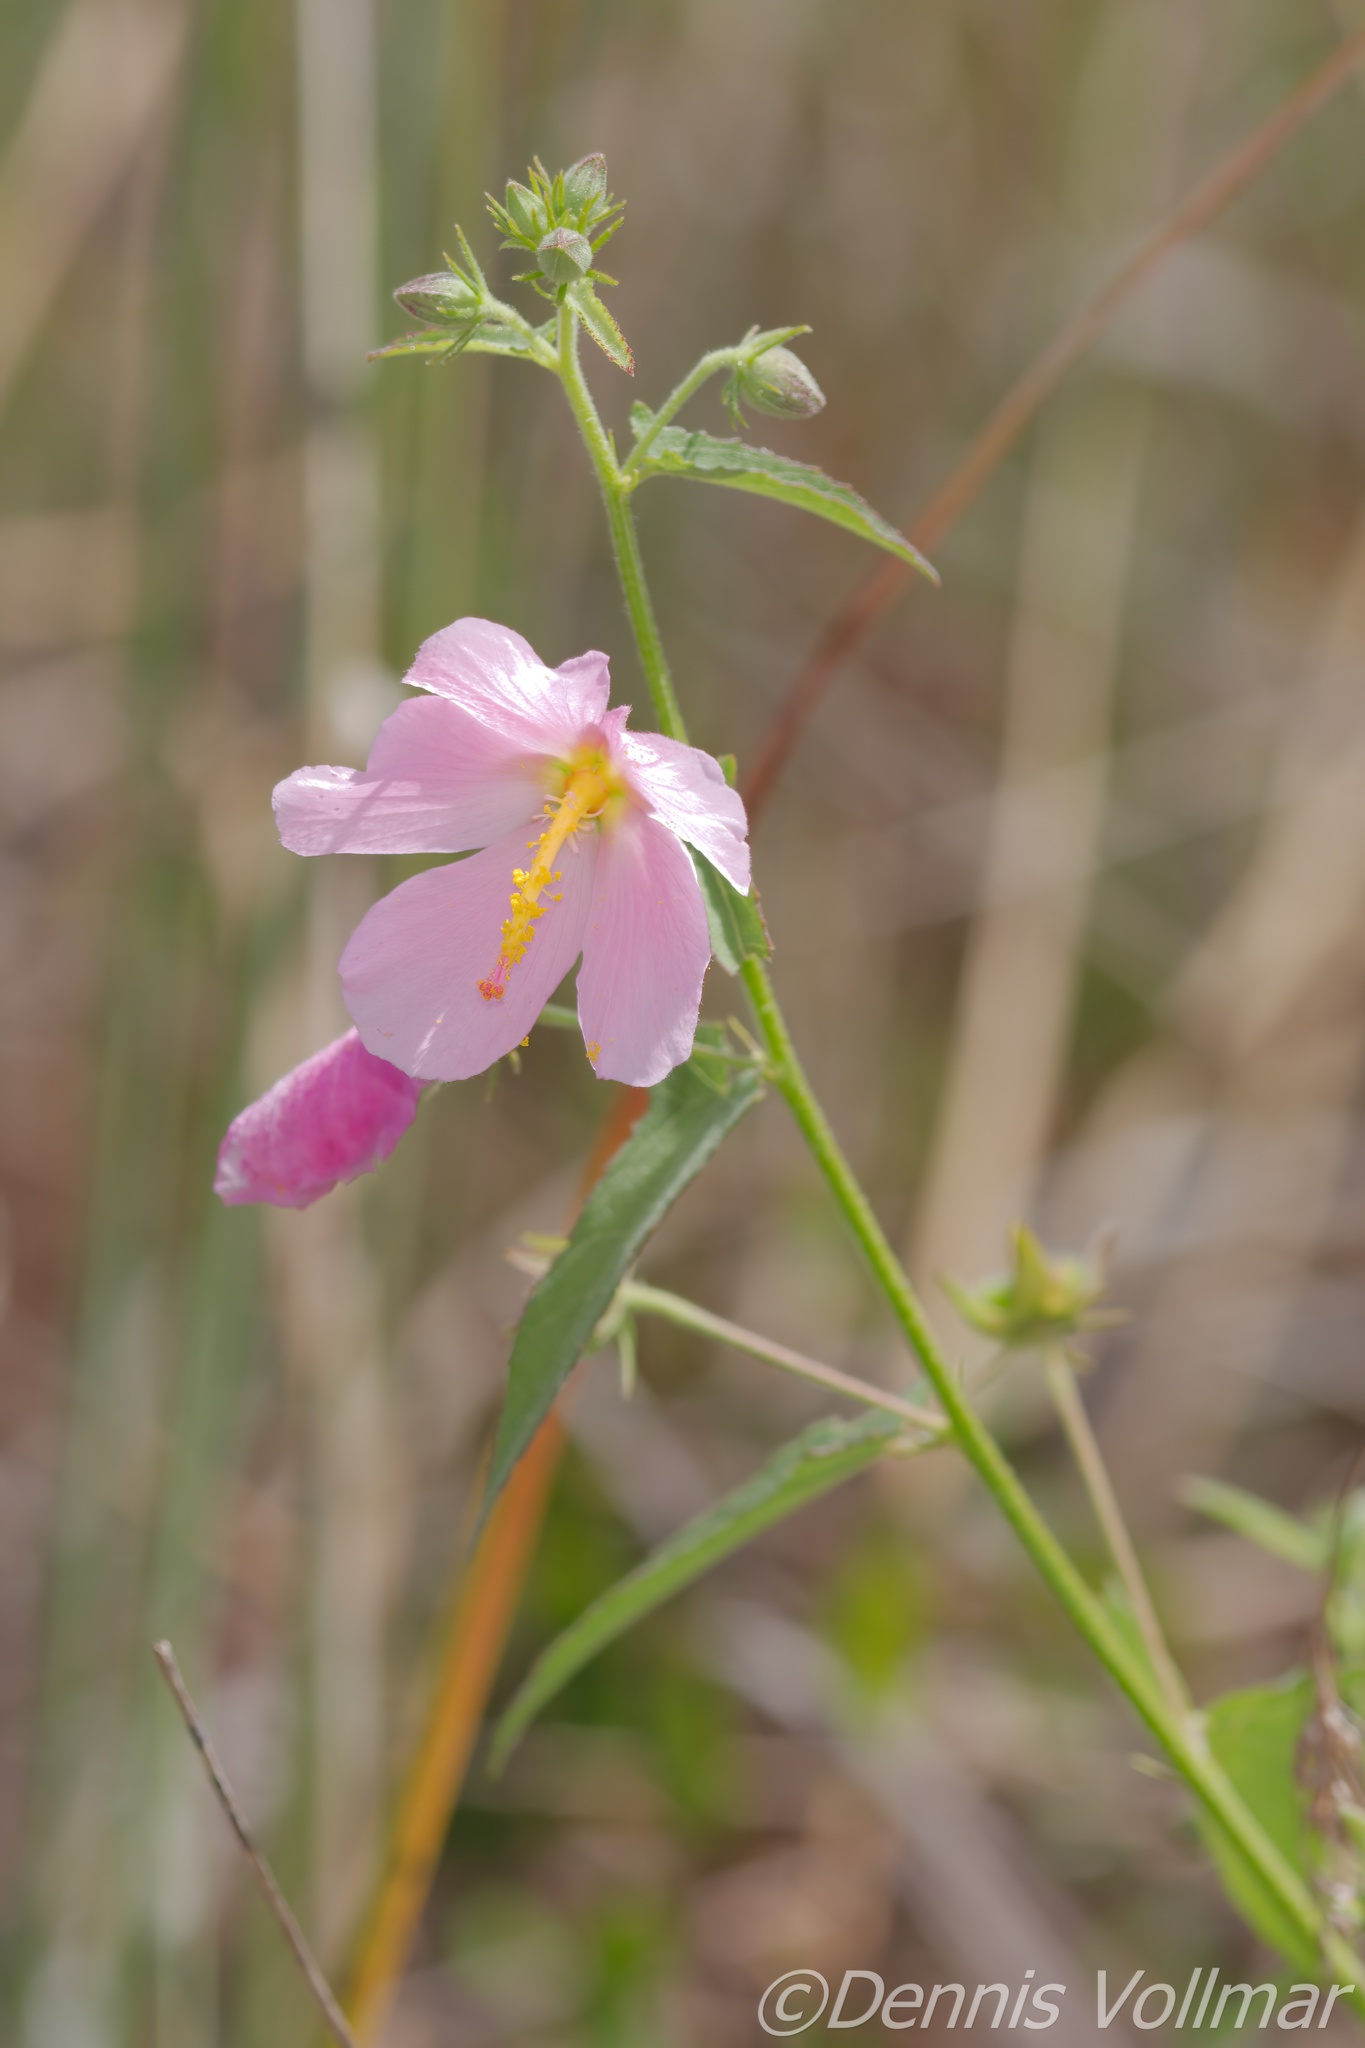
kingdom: Plantae
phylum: Tracheophyta
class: Magnoliopsida
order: Malvales
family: Malvaceae
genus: Kosteletzkya
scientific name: Kosteletzkya pentacarpos
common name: Virginia saltmarsh mallow
